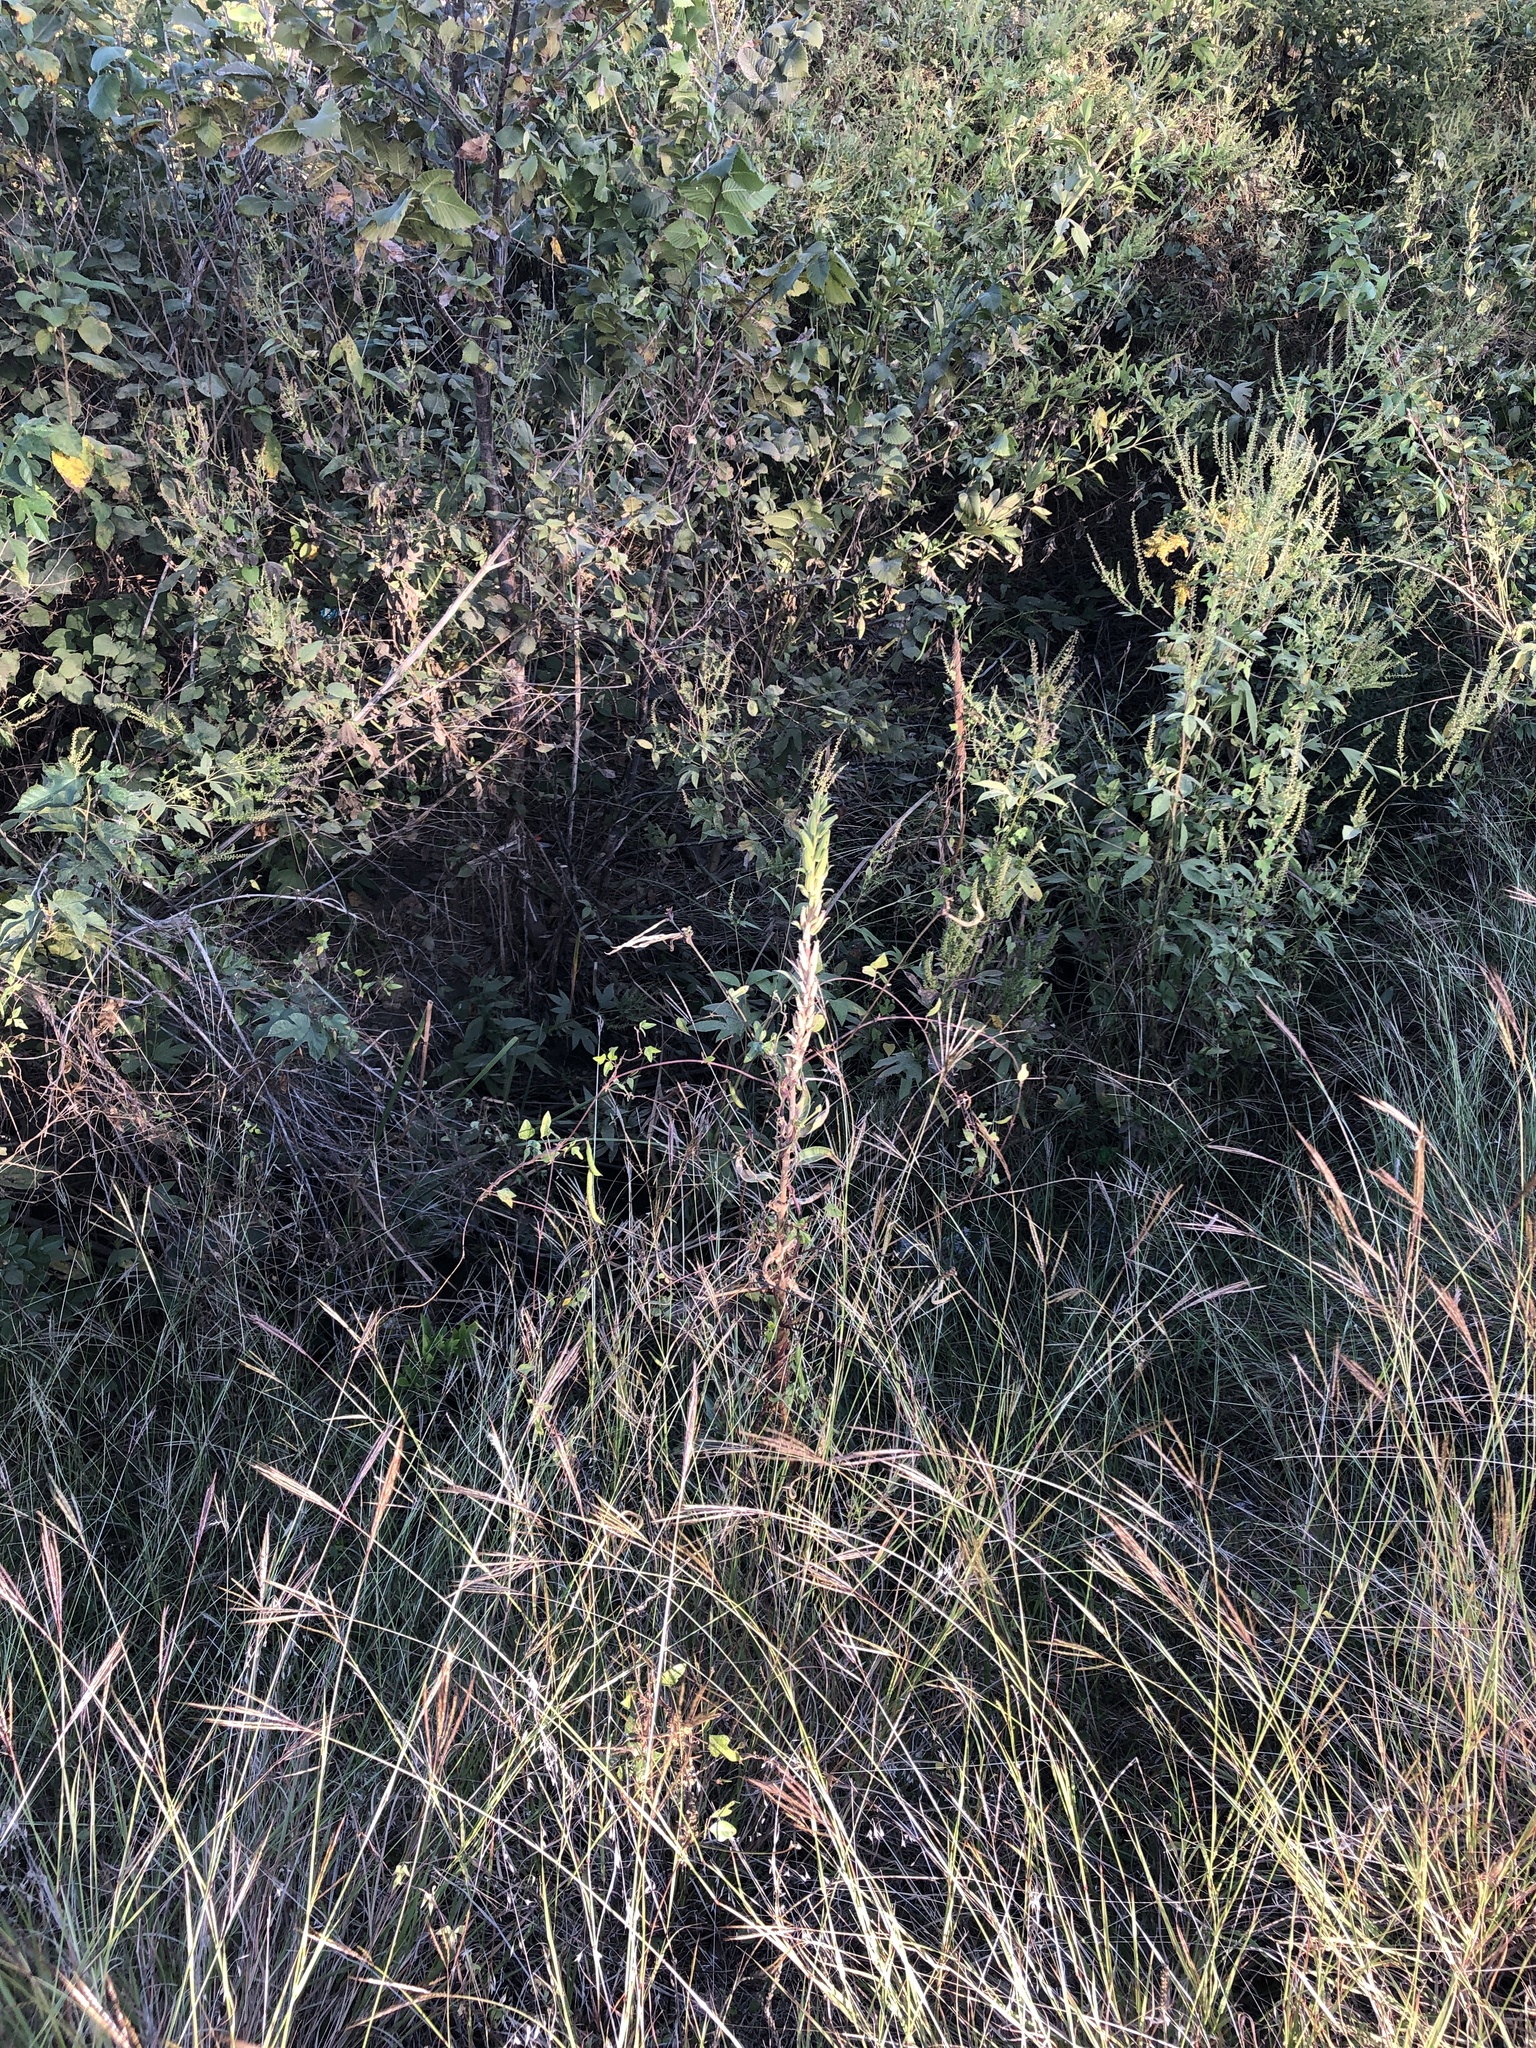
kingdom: Plantae
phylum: Tracheophyta
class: Magnoliopsida
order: Myrtales
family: Onagraceae
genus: Oenothera
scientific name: Oenothera biennis
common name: Common evening-primrose
